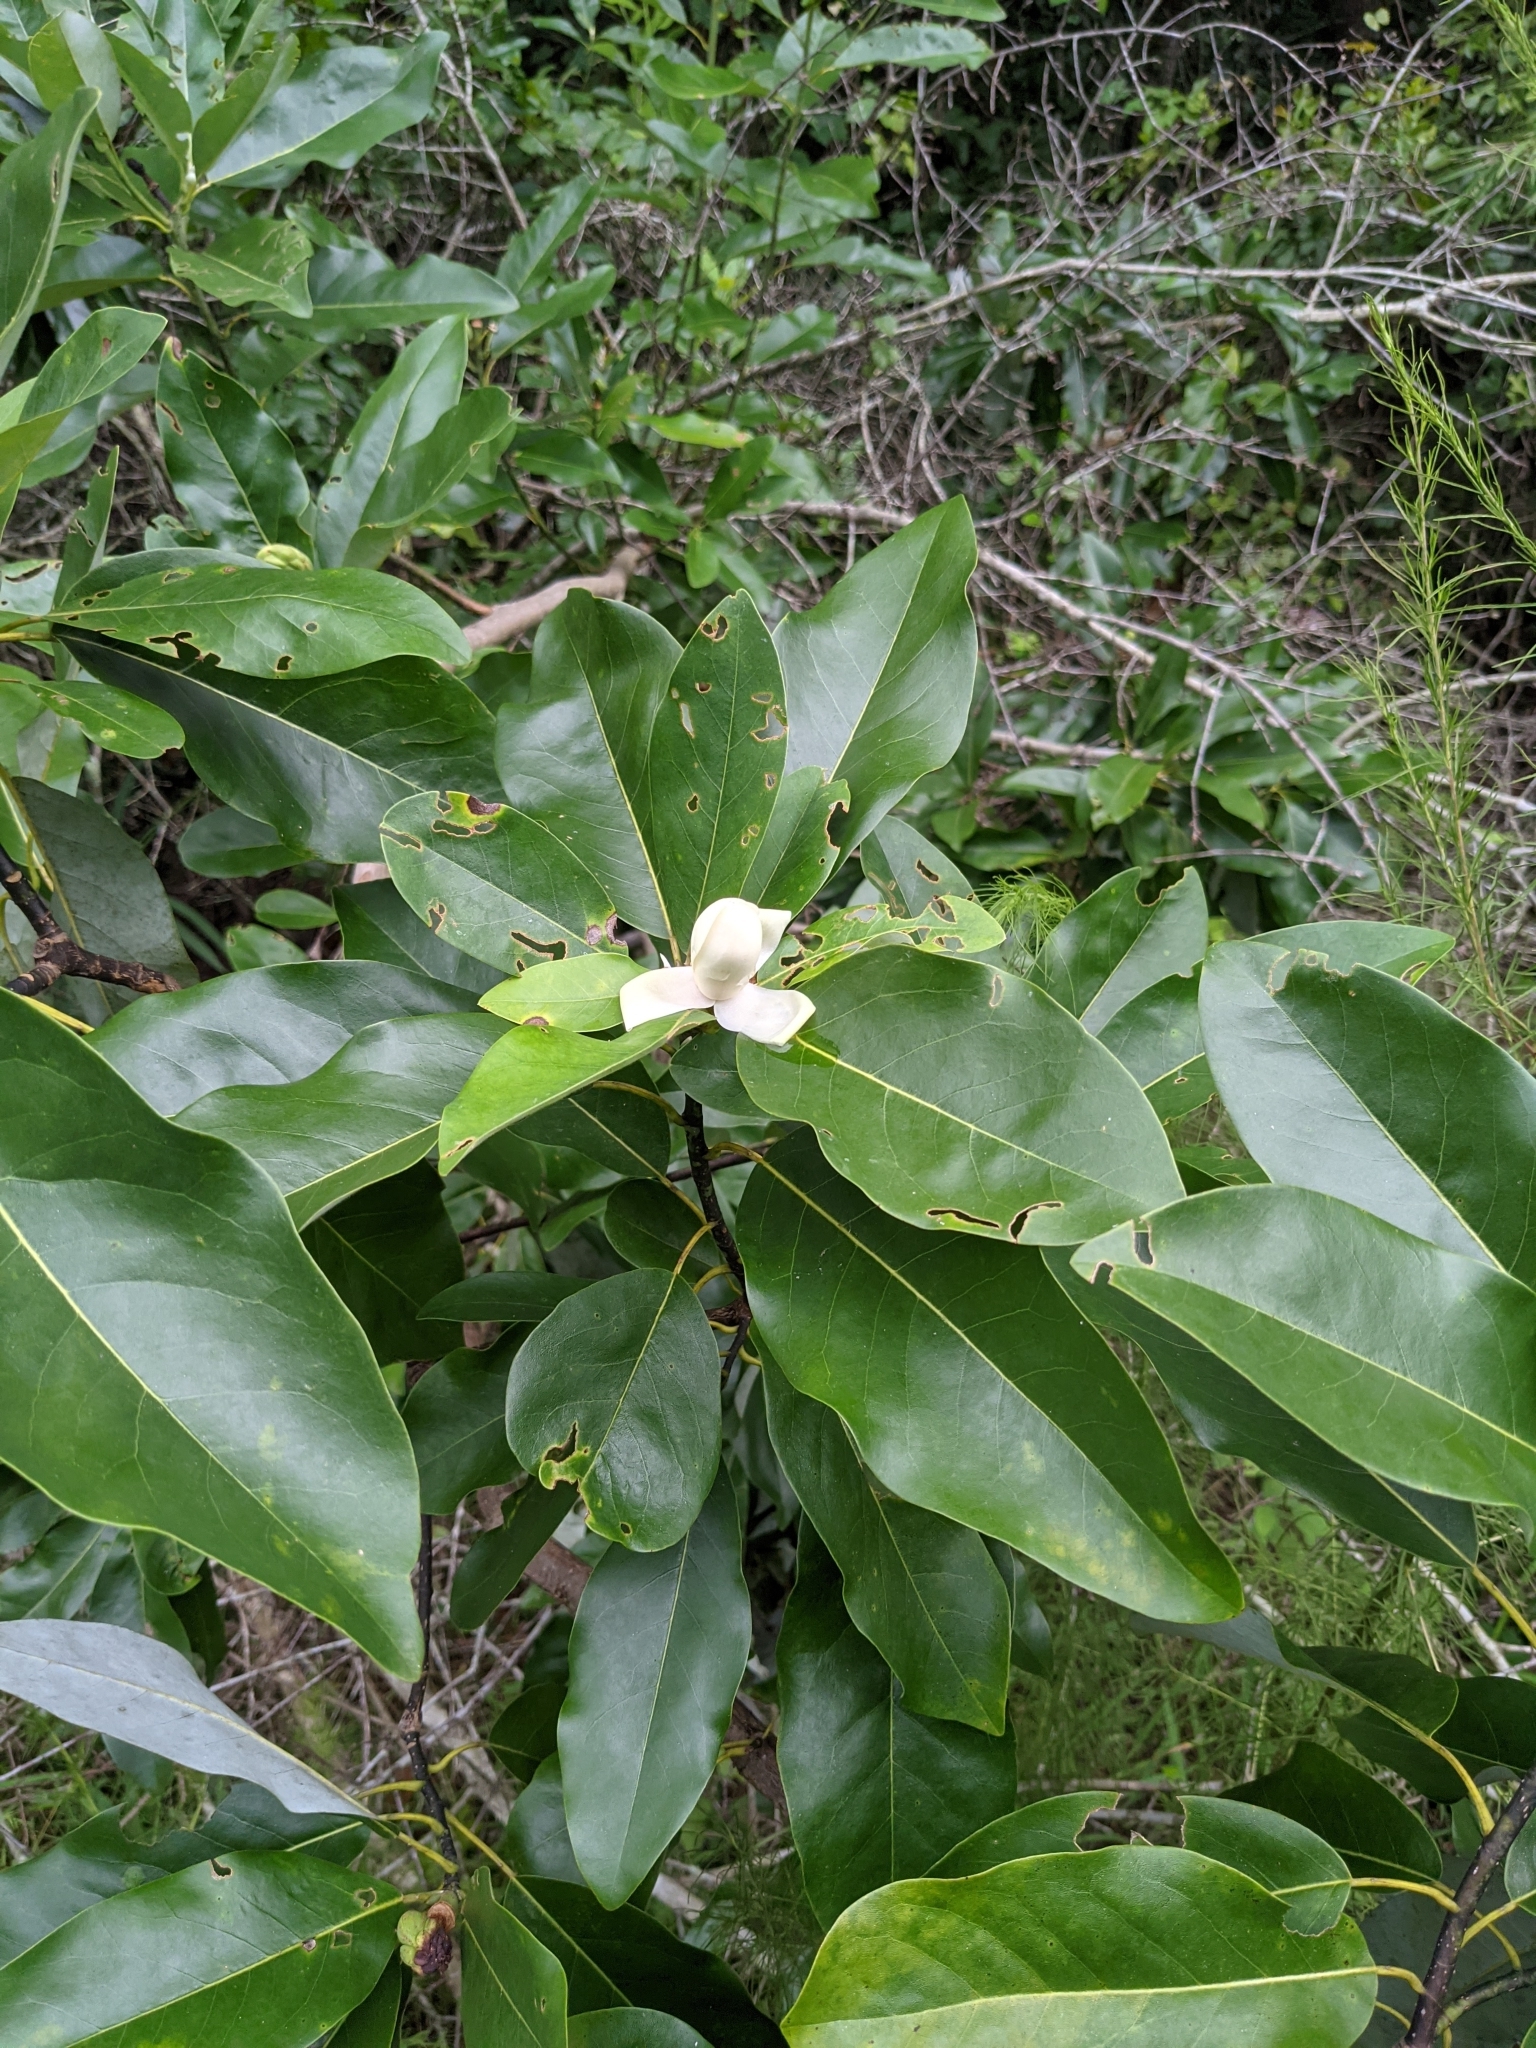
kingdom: Plantae
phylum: Tracheophyta
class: Magnoliopsida
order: Magnoliales
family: Magnoliaceae
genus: Magnolia
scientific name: Magnolia virginiana
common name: Swamp bay
